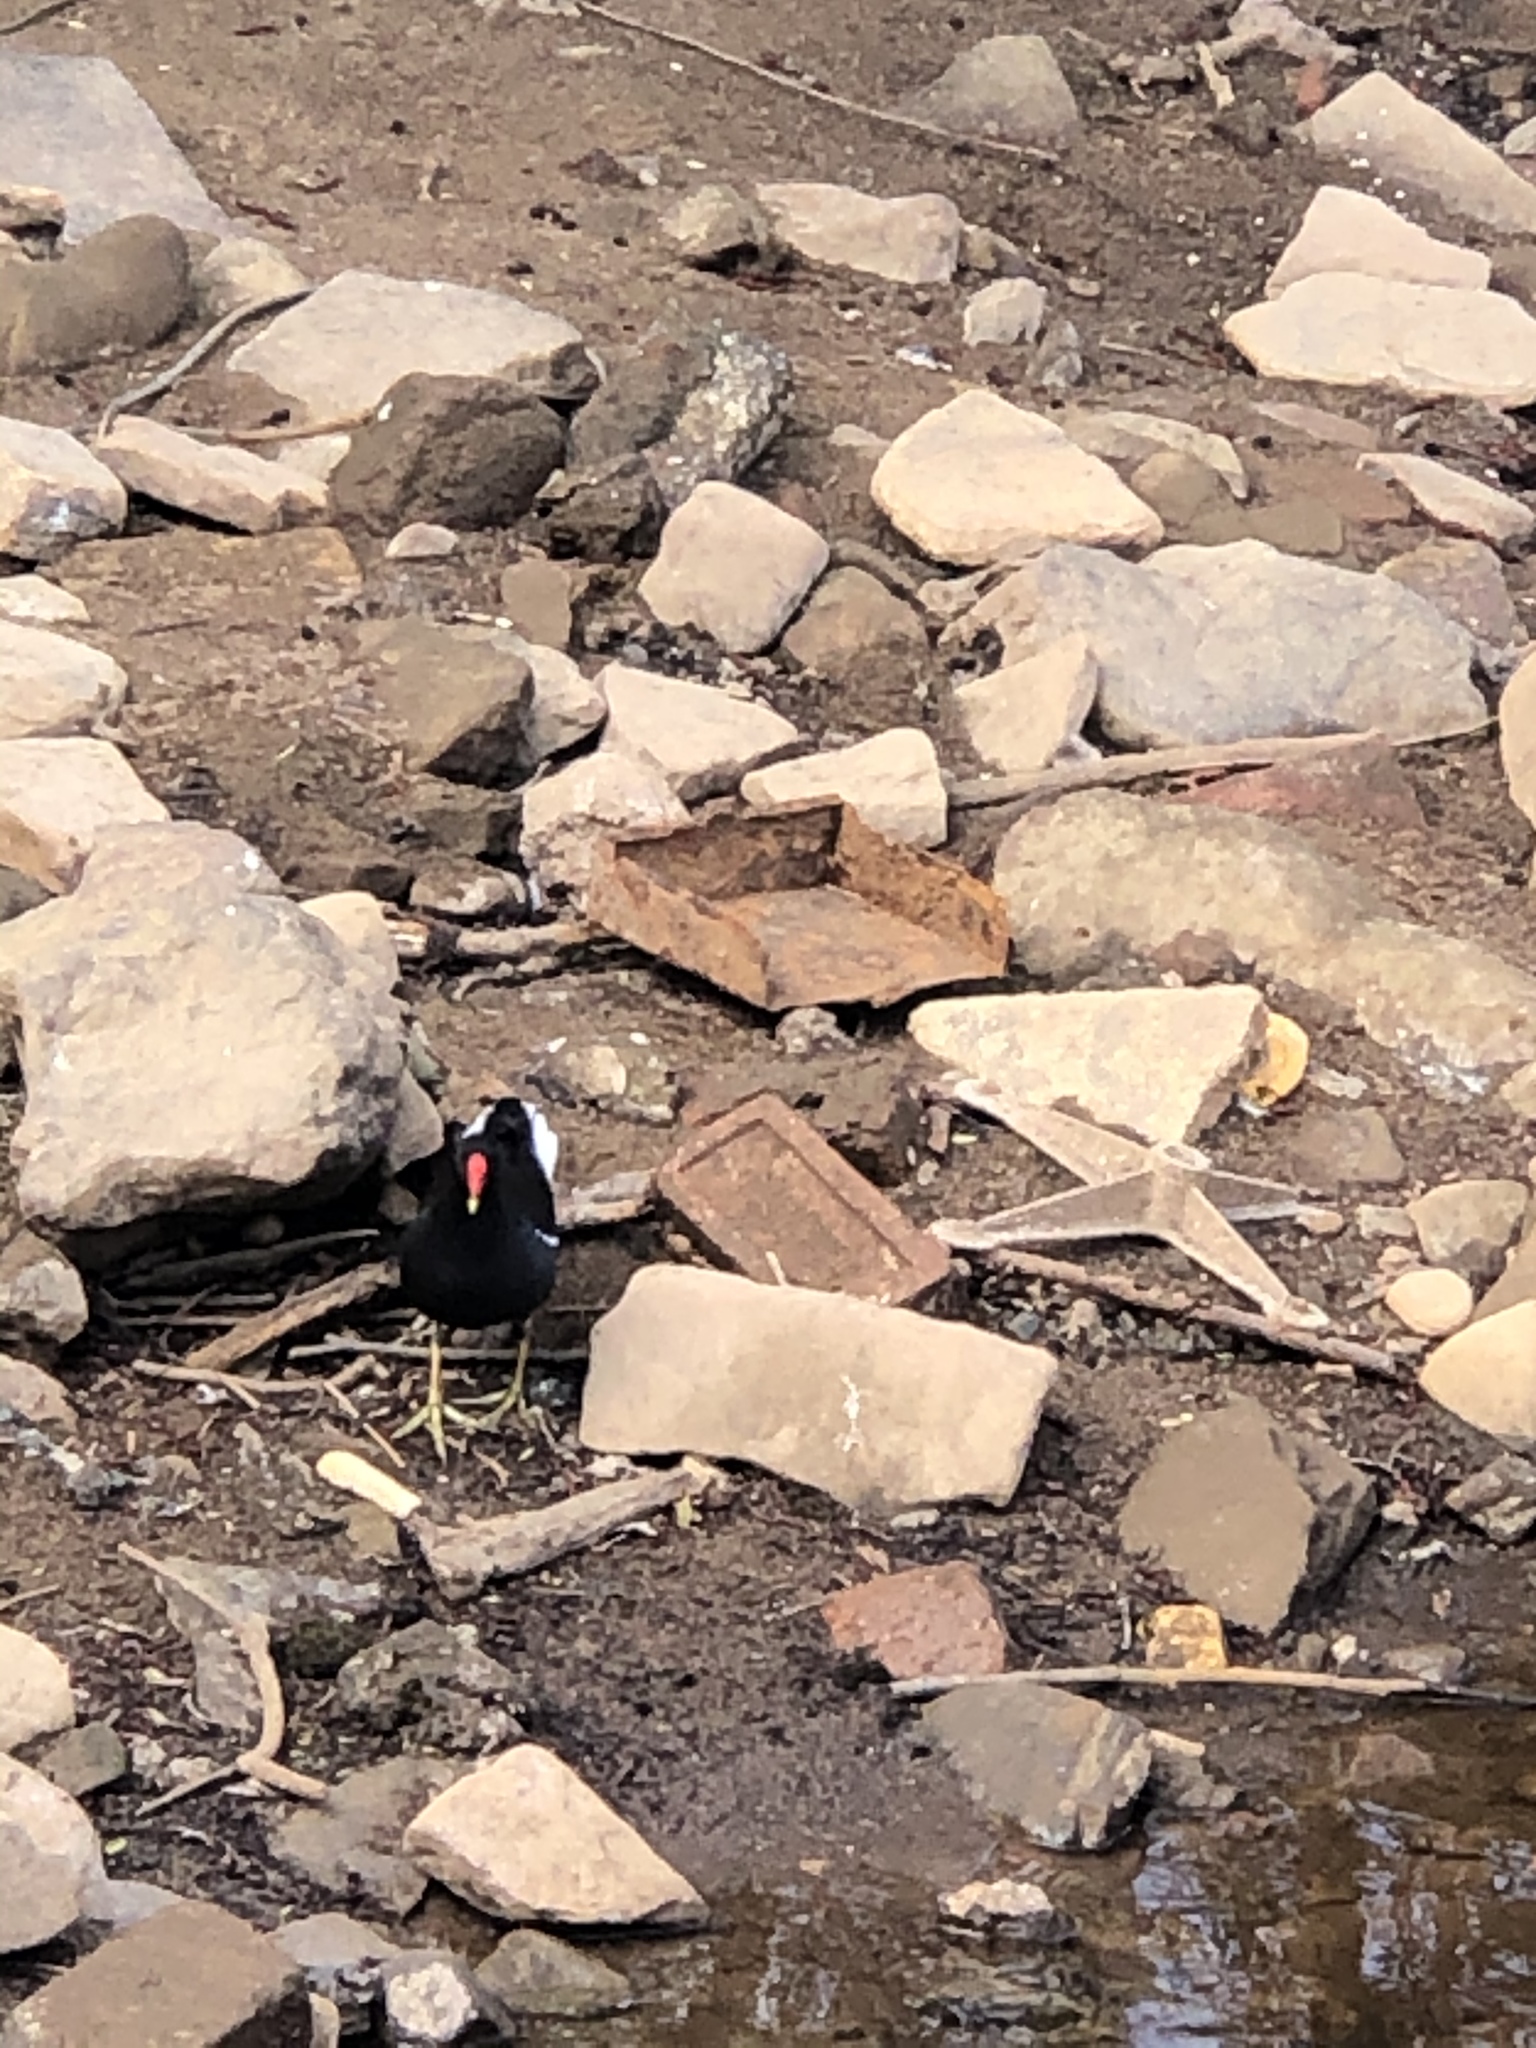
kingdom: Animalia
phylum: Chordata
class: Aves
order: Gruiformes
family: Rallidae
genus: Gallinula
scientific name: Gallinula chloropus
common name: Common moorhen
